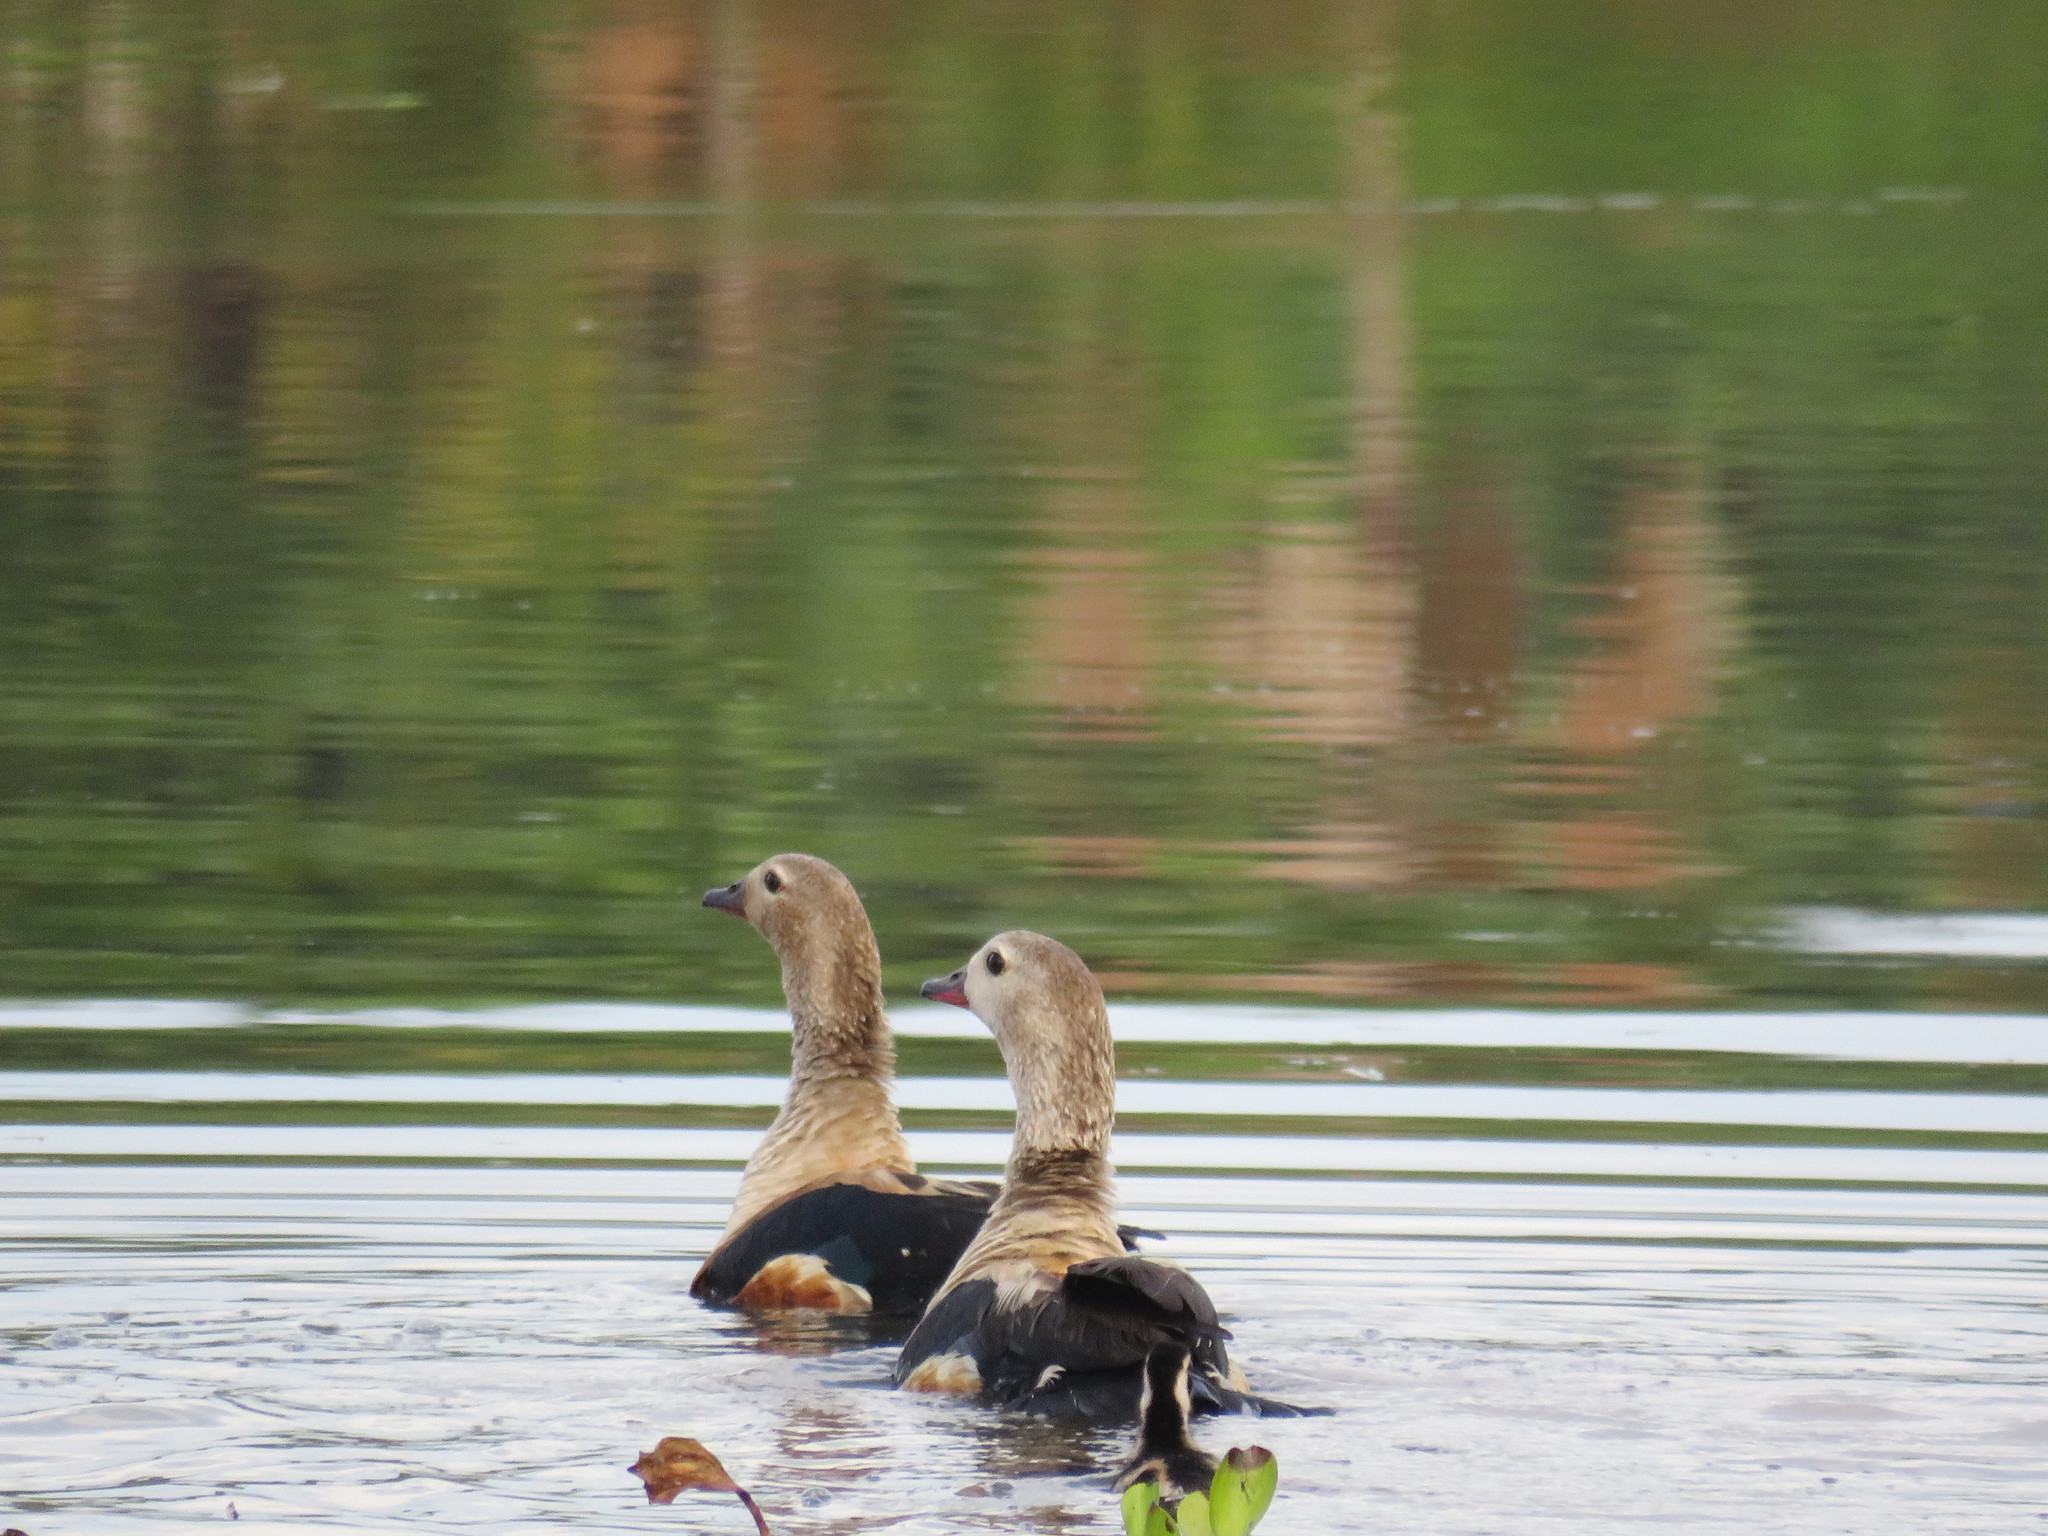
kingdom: Animalia
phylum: Chordata
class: Aves
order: Anseriformes
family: Anatidae
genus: Oressochen
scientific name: Oressochen jubatus
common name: Orinoco goose
